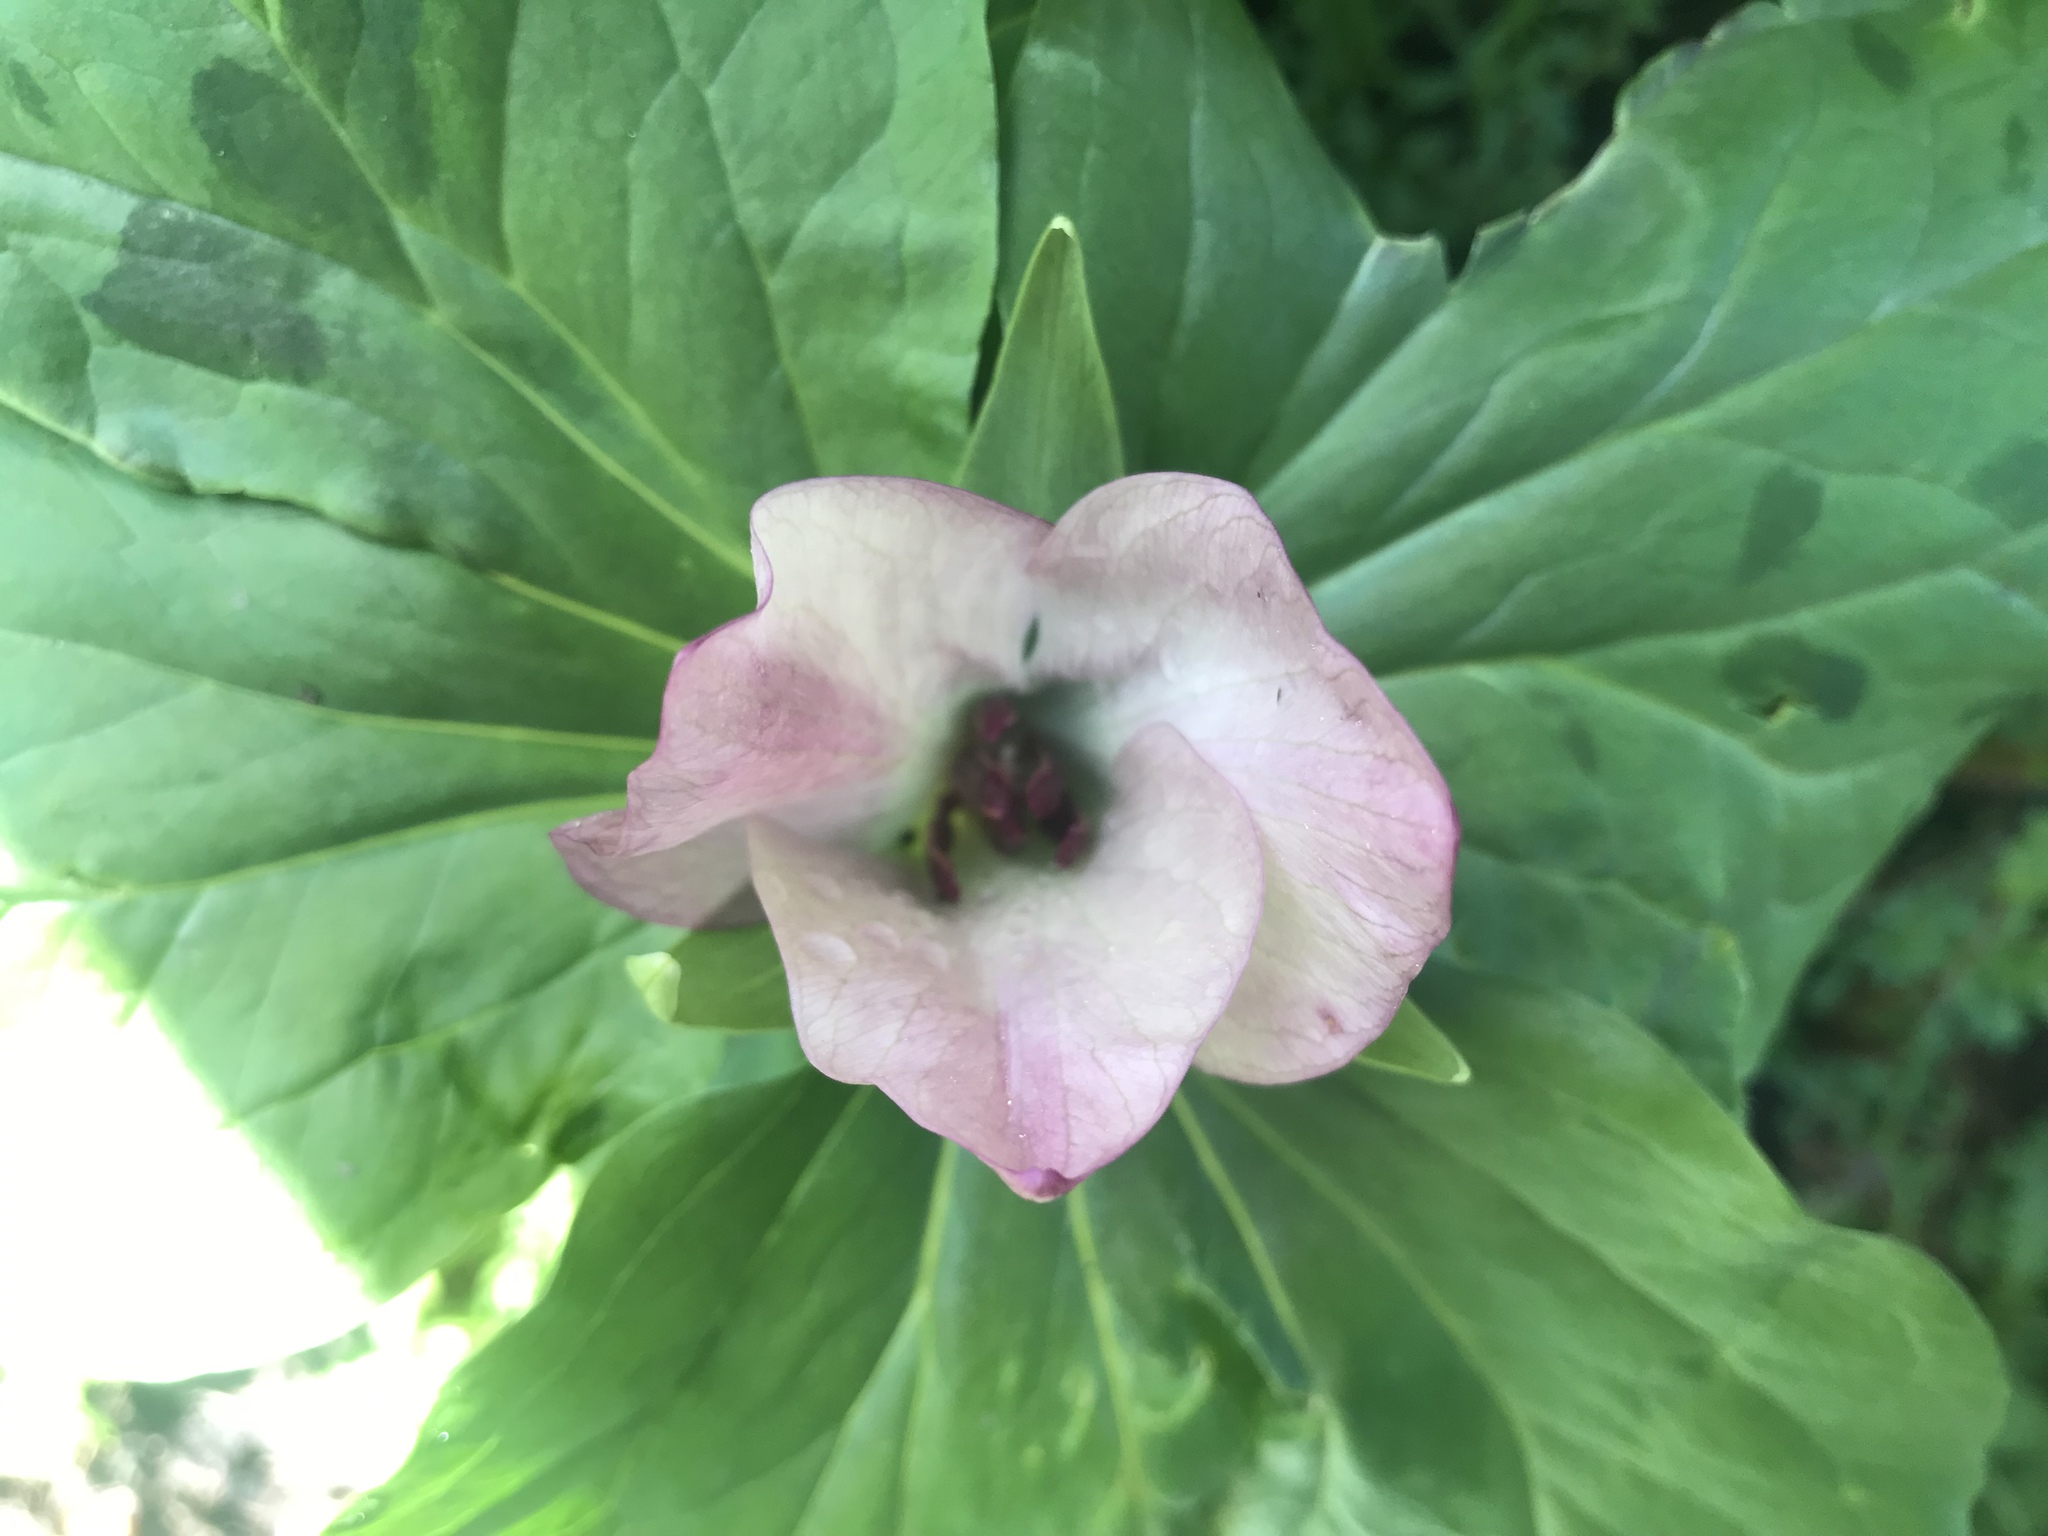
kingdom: Plantae
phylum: Tracheophyta
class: Liliopsida
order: Liliales
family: Melanthiaceae
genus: Trillium
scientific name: Trillium chloropetalum
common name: Giant trillium
